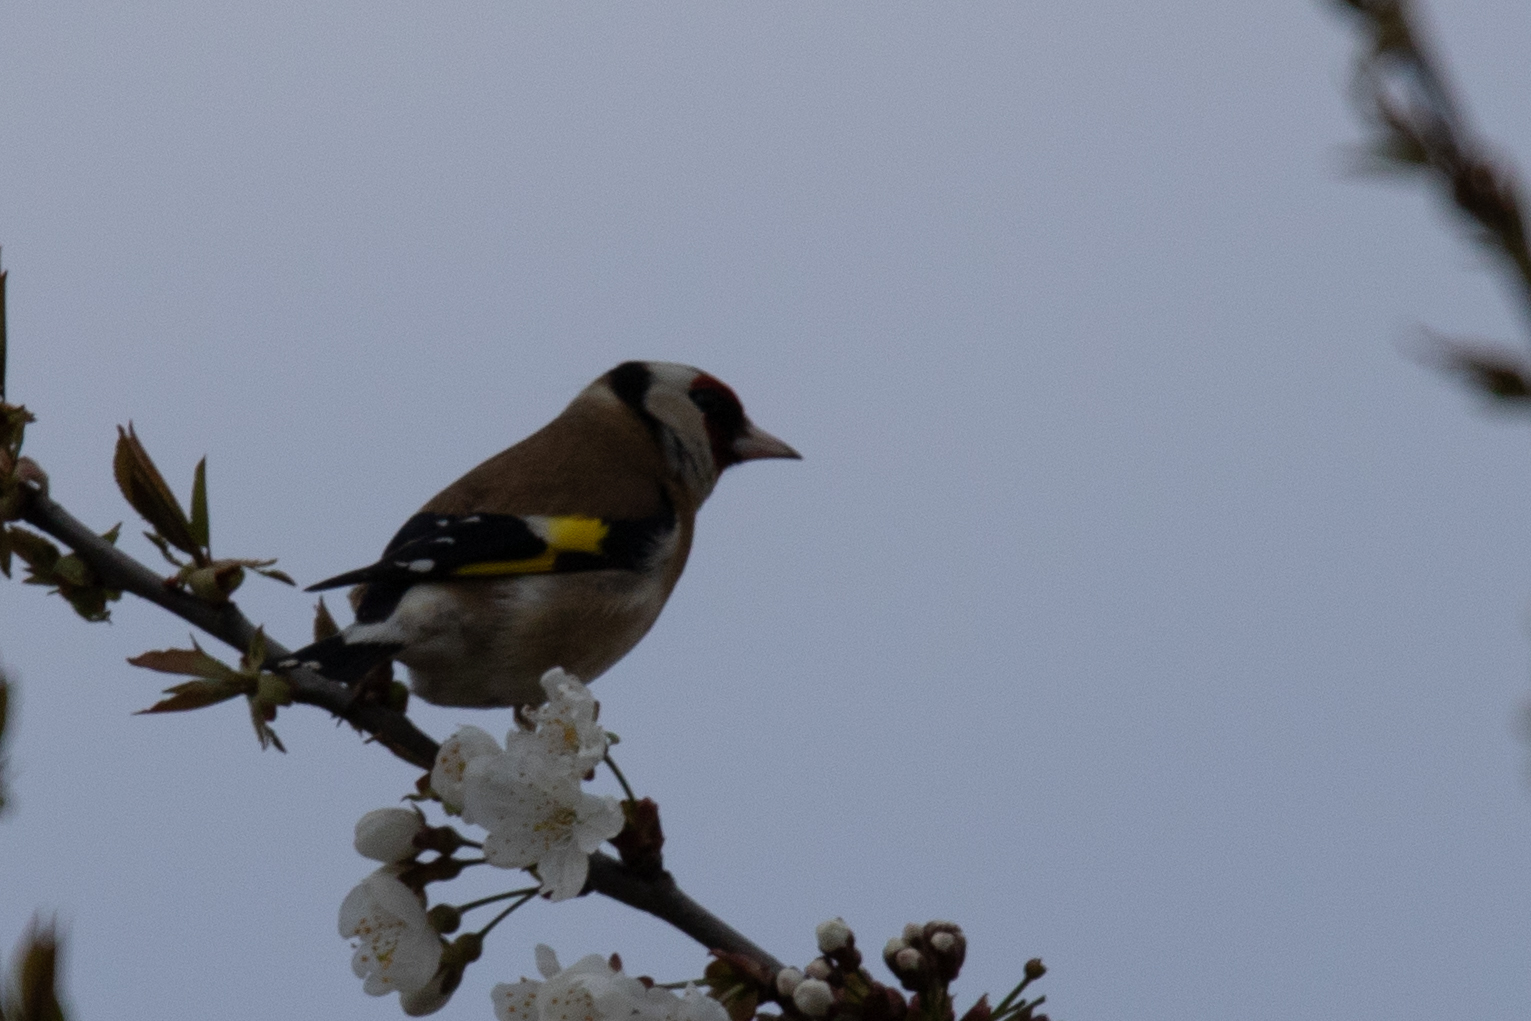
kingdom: Animalia
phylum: Chordata
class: Aves
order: Passeriformes
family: Fringillidae
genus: Carduelis
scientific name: Carduelis carduelis
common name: European goldfinch
